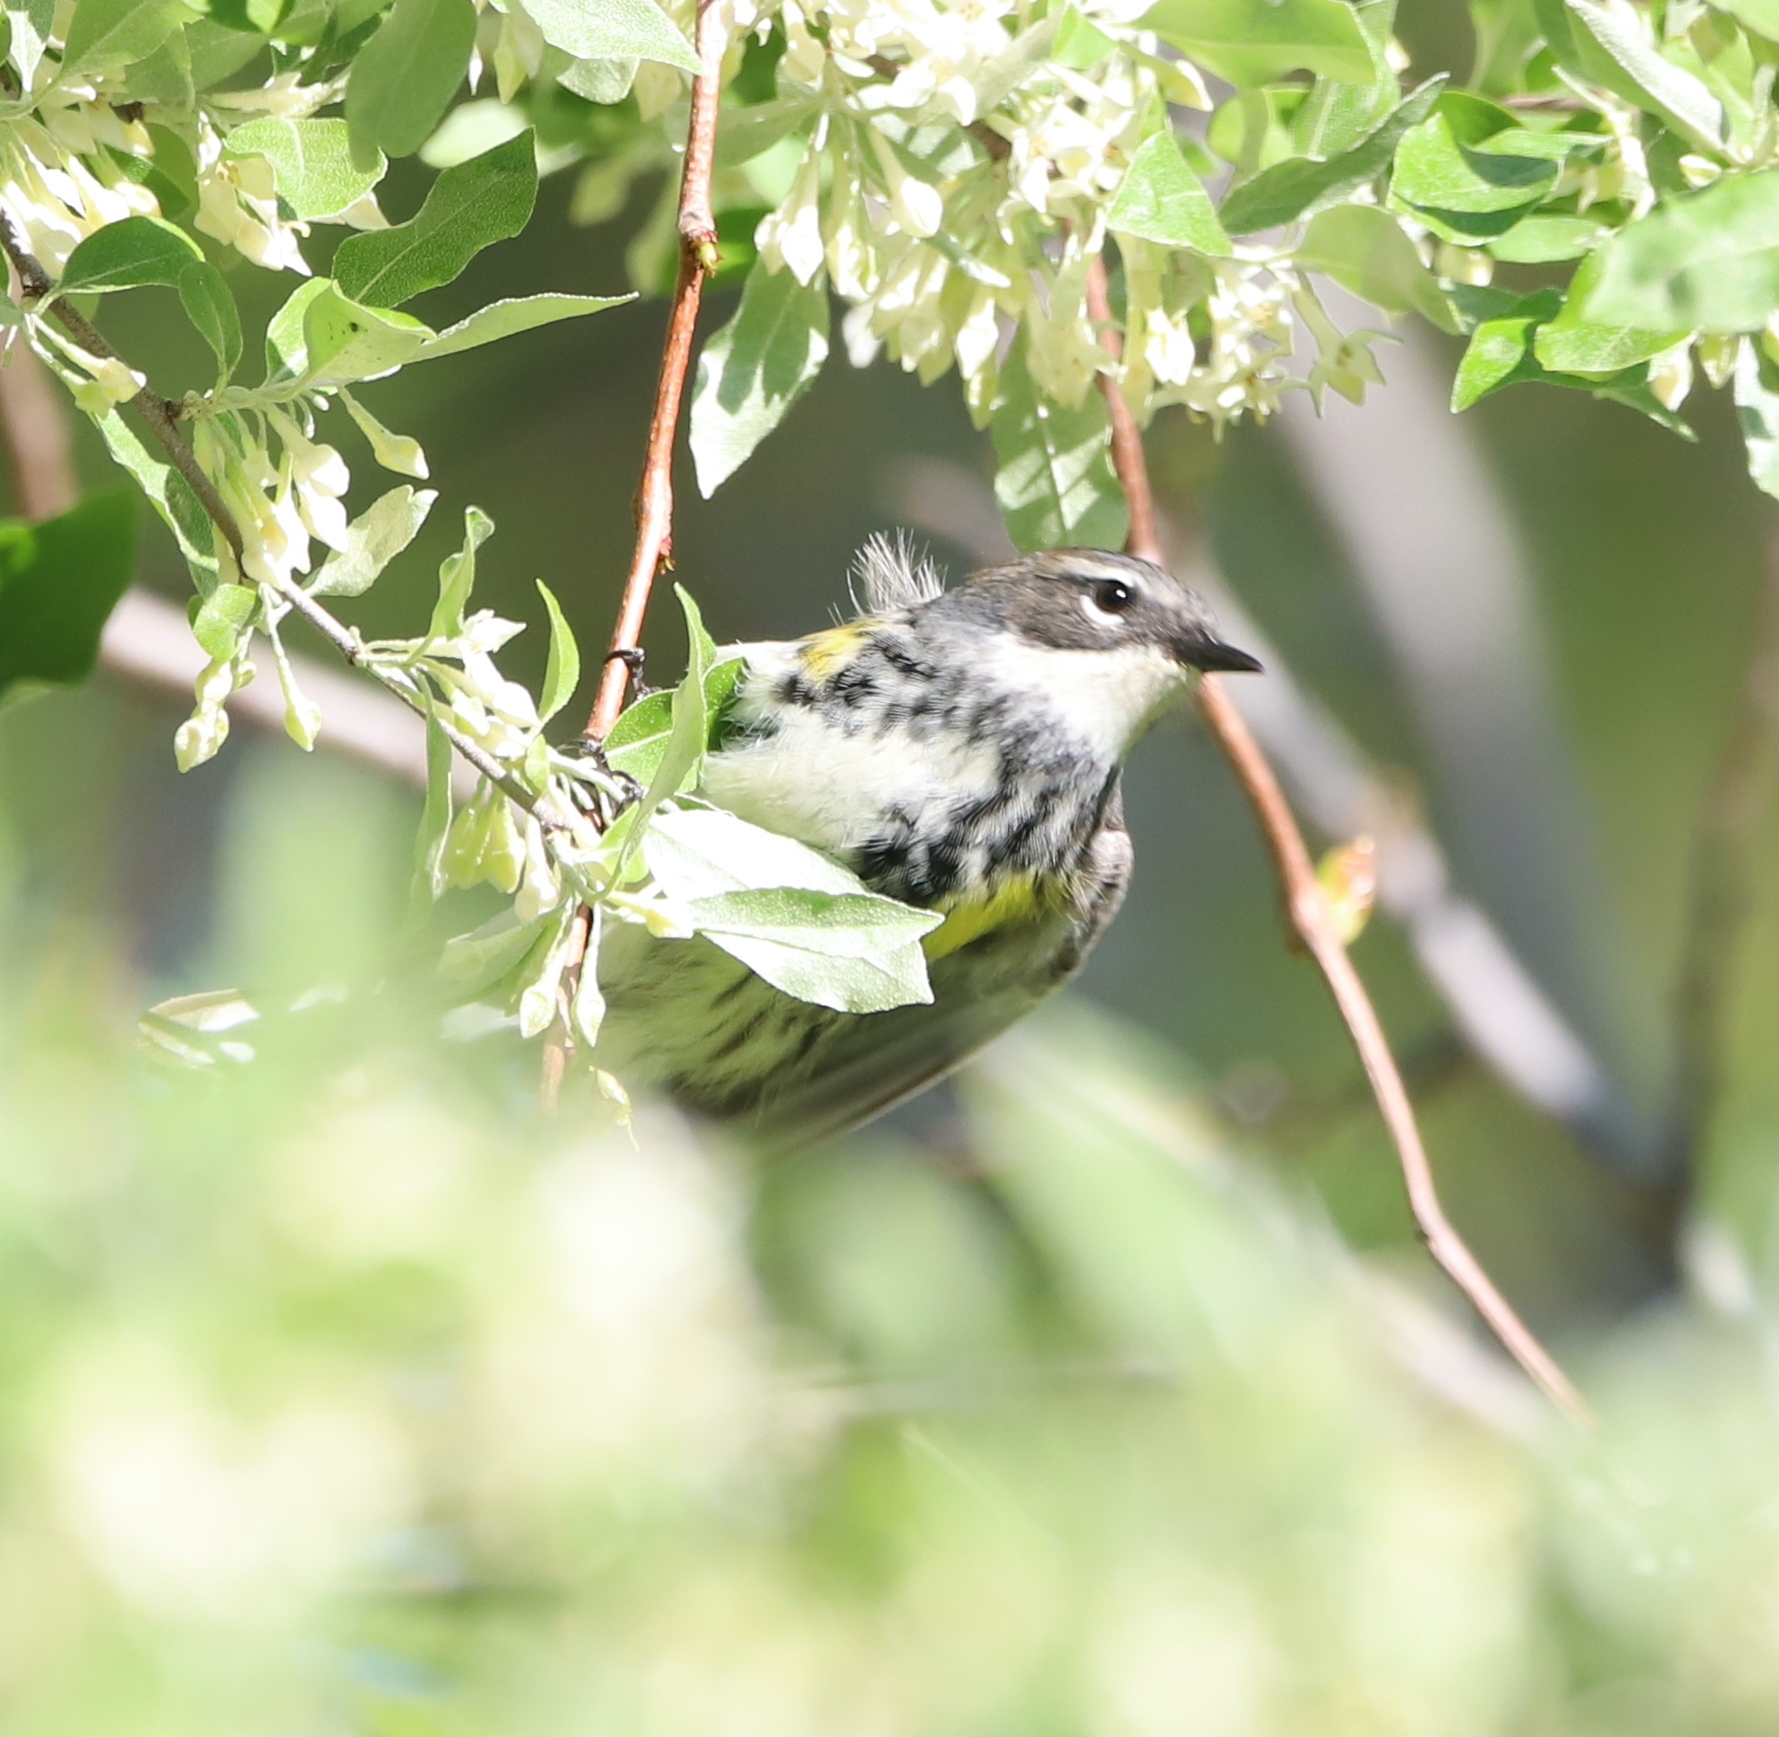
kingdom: Animalia
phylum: Chordata
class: Aves
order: Passeriformes
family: Parulidae
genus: Setophaga
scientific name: Setophaga coronata
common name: Myrtle warbler
